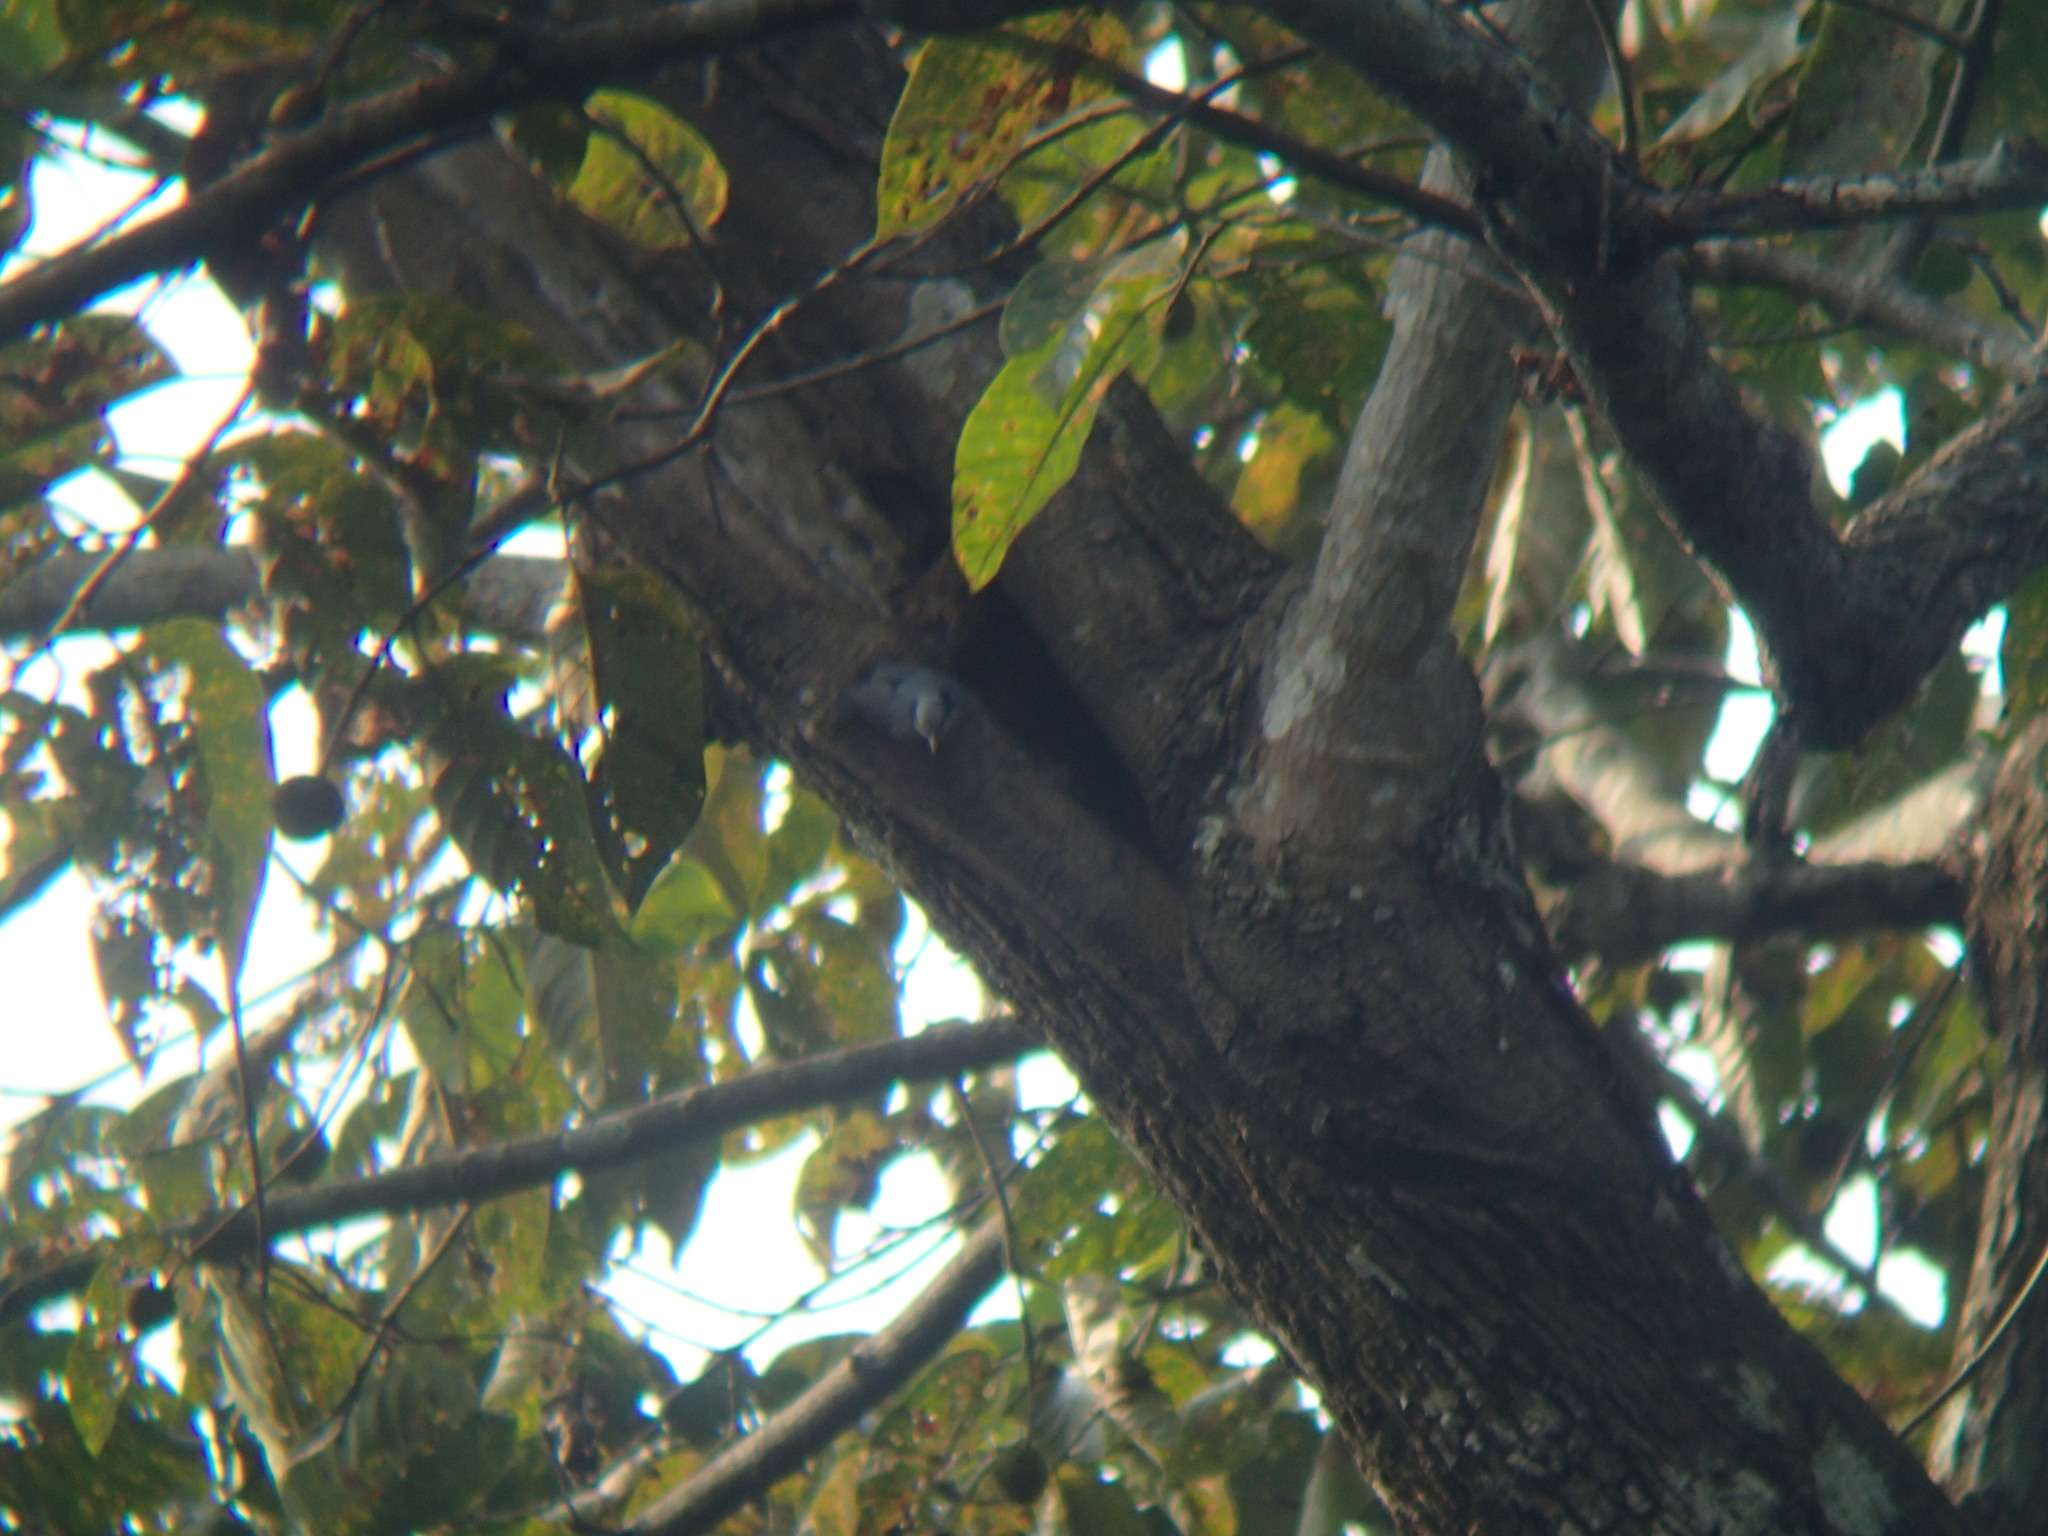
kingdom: Animalia
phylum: Chordata
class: Aves
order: Passeriformes
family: Sittidae
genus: Sitta
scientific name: Sitta castanea
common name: Indian nuthatch
